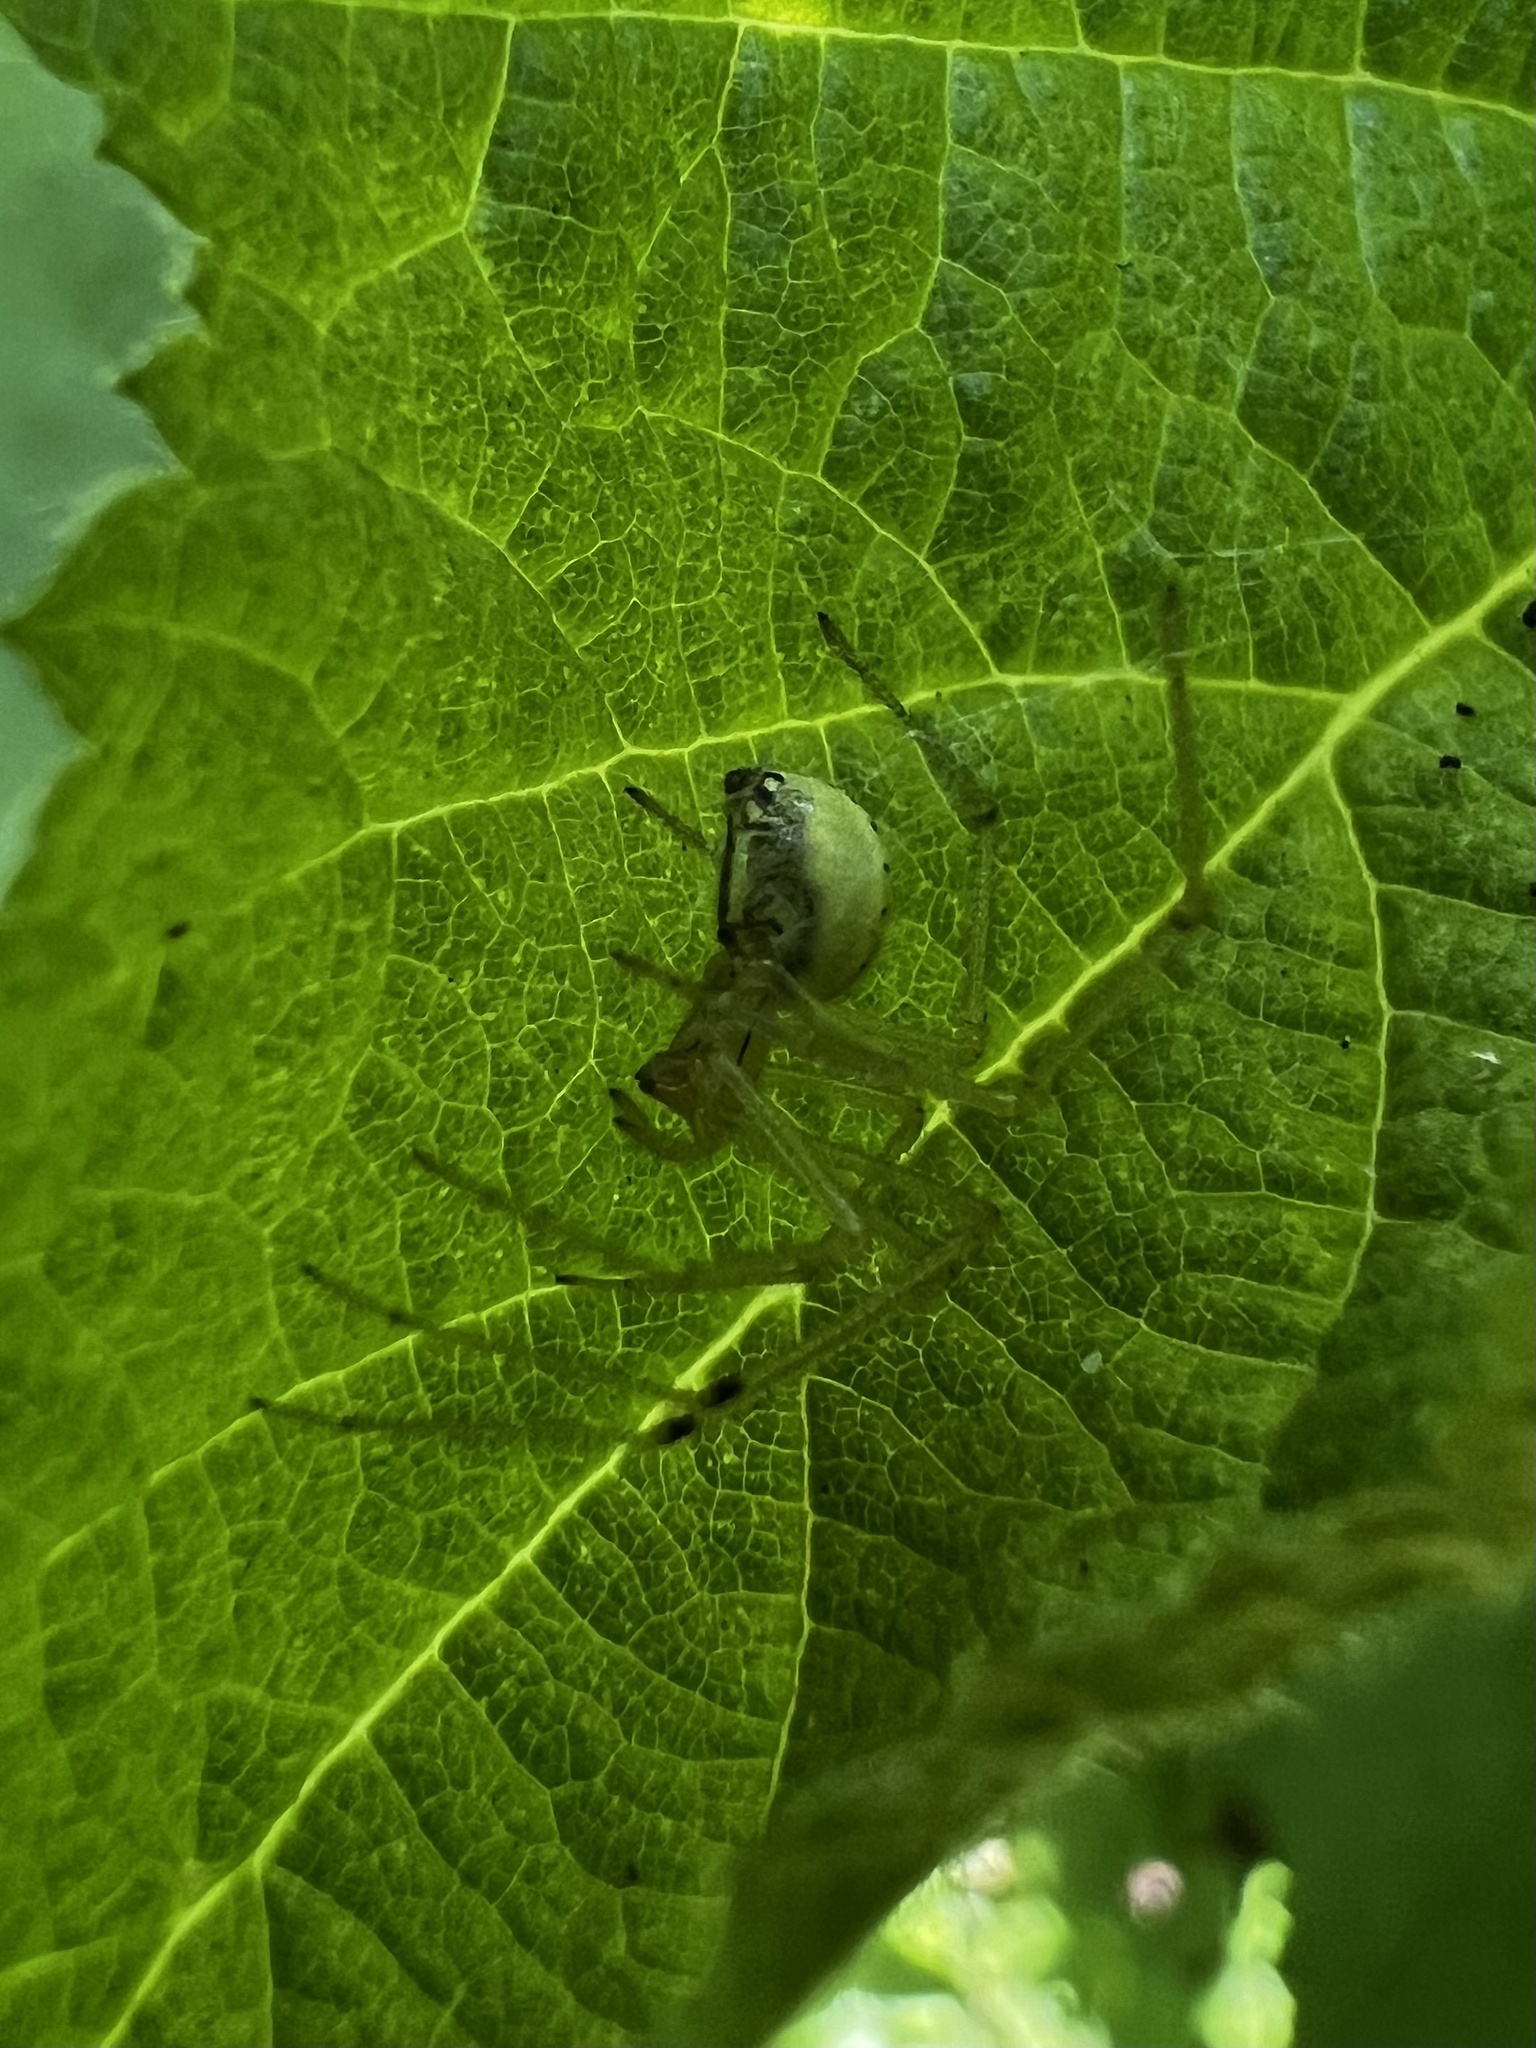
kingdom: Animalia
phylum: Arthropoda
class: Arachnida
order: Araneae
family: Theridiidae
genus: Enoplognatha
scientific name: Enoplognatha ovata
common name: Common candy-striped spider
